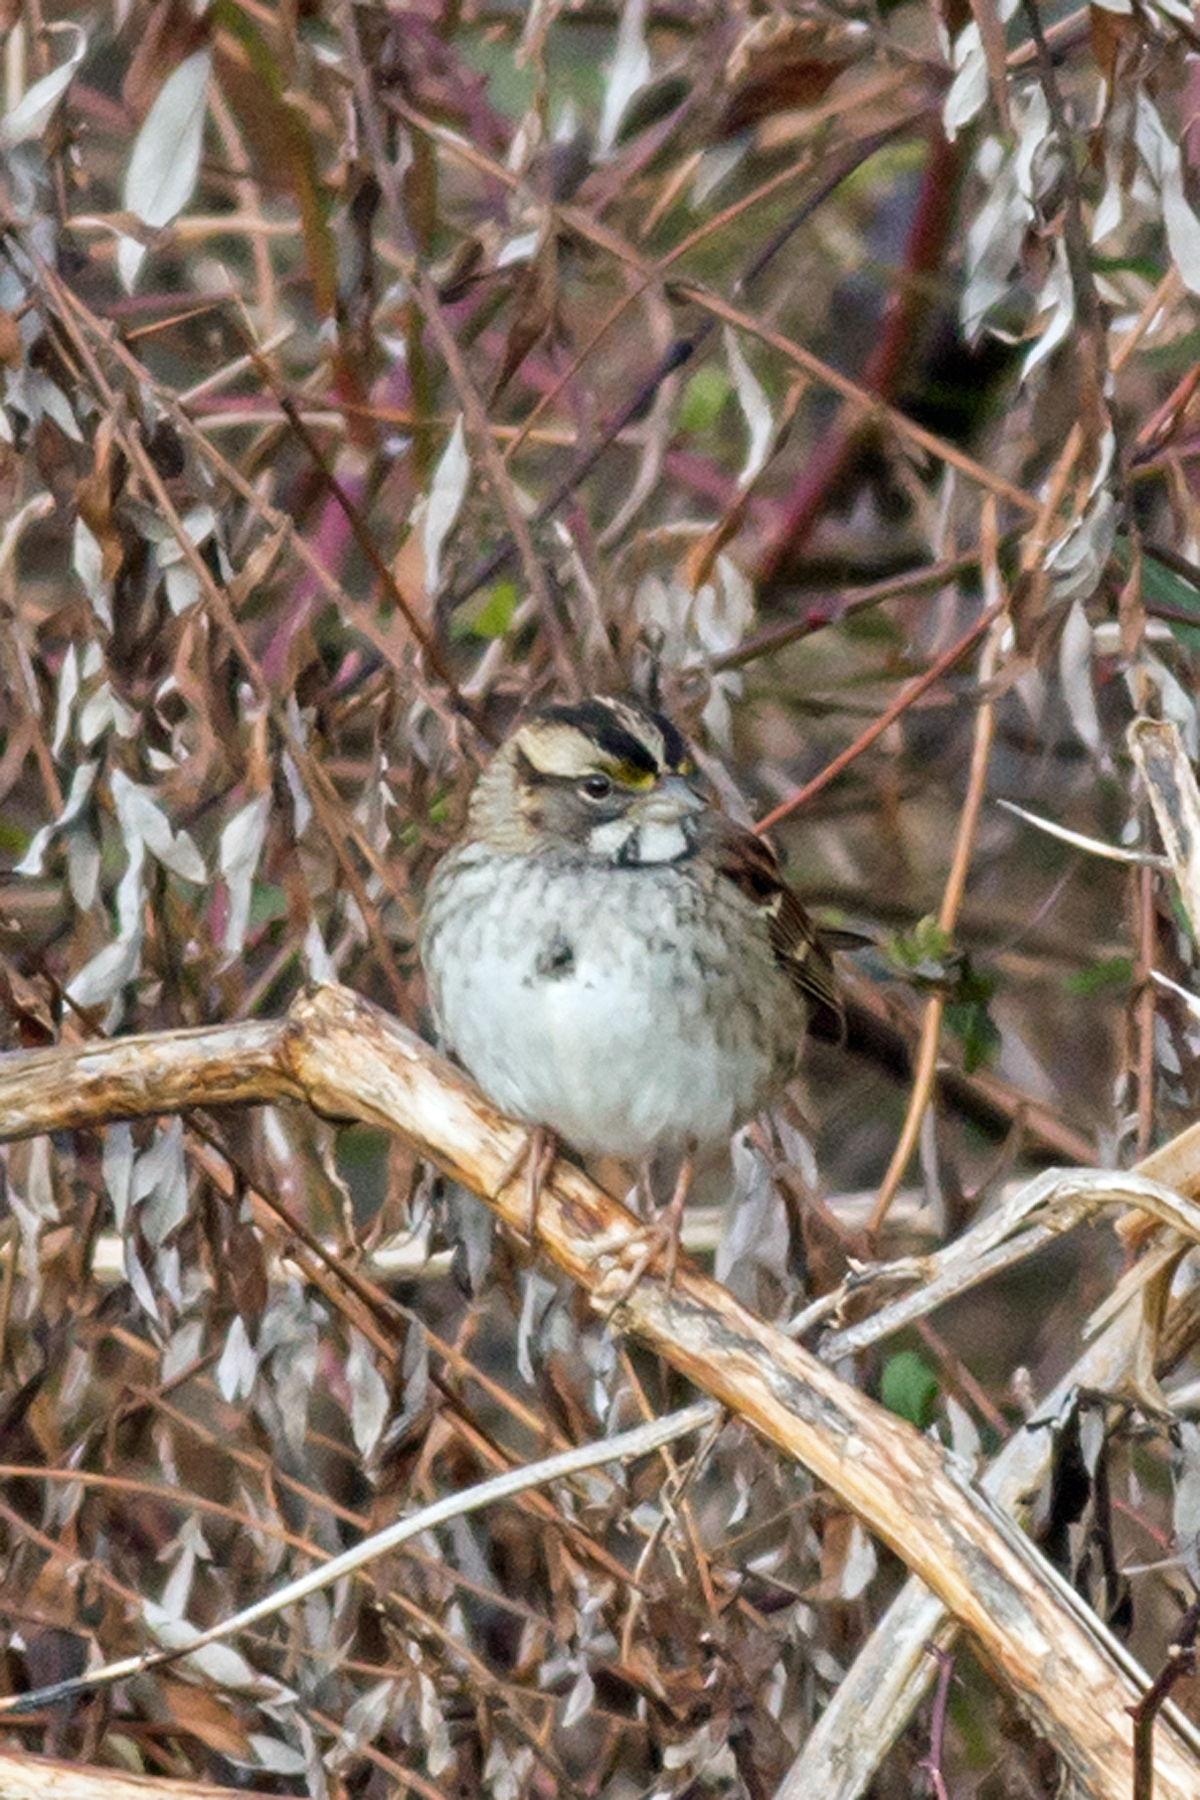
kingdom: Animalia
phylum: Chordata
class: Aves
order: Passeriformes
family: Passerellidae
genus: Zonotrichia
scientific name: Zonotrichia albicollis
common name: White-throated sparrow
